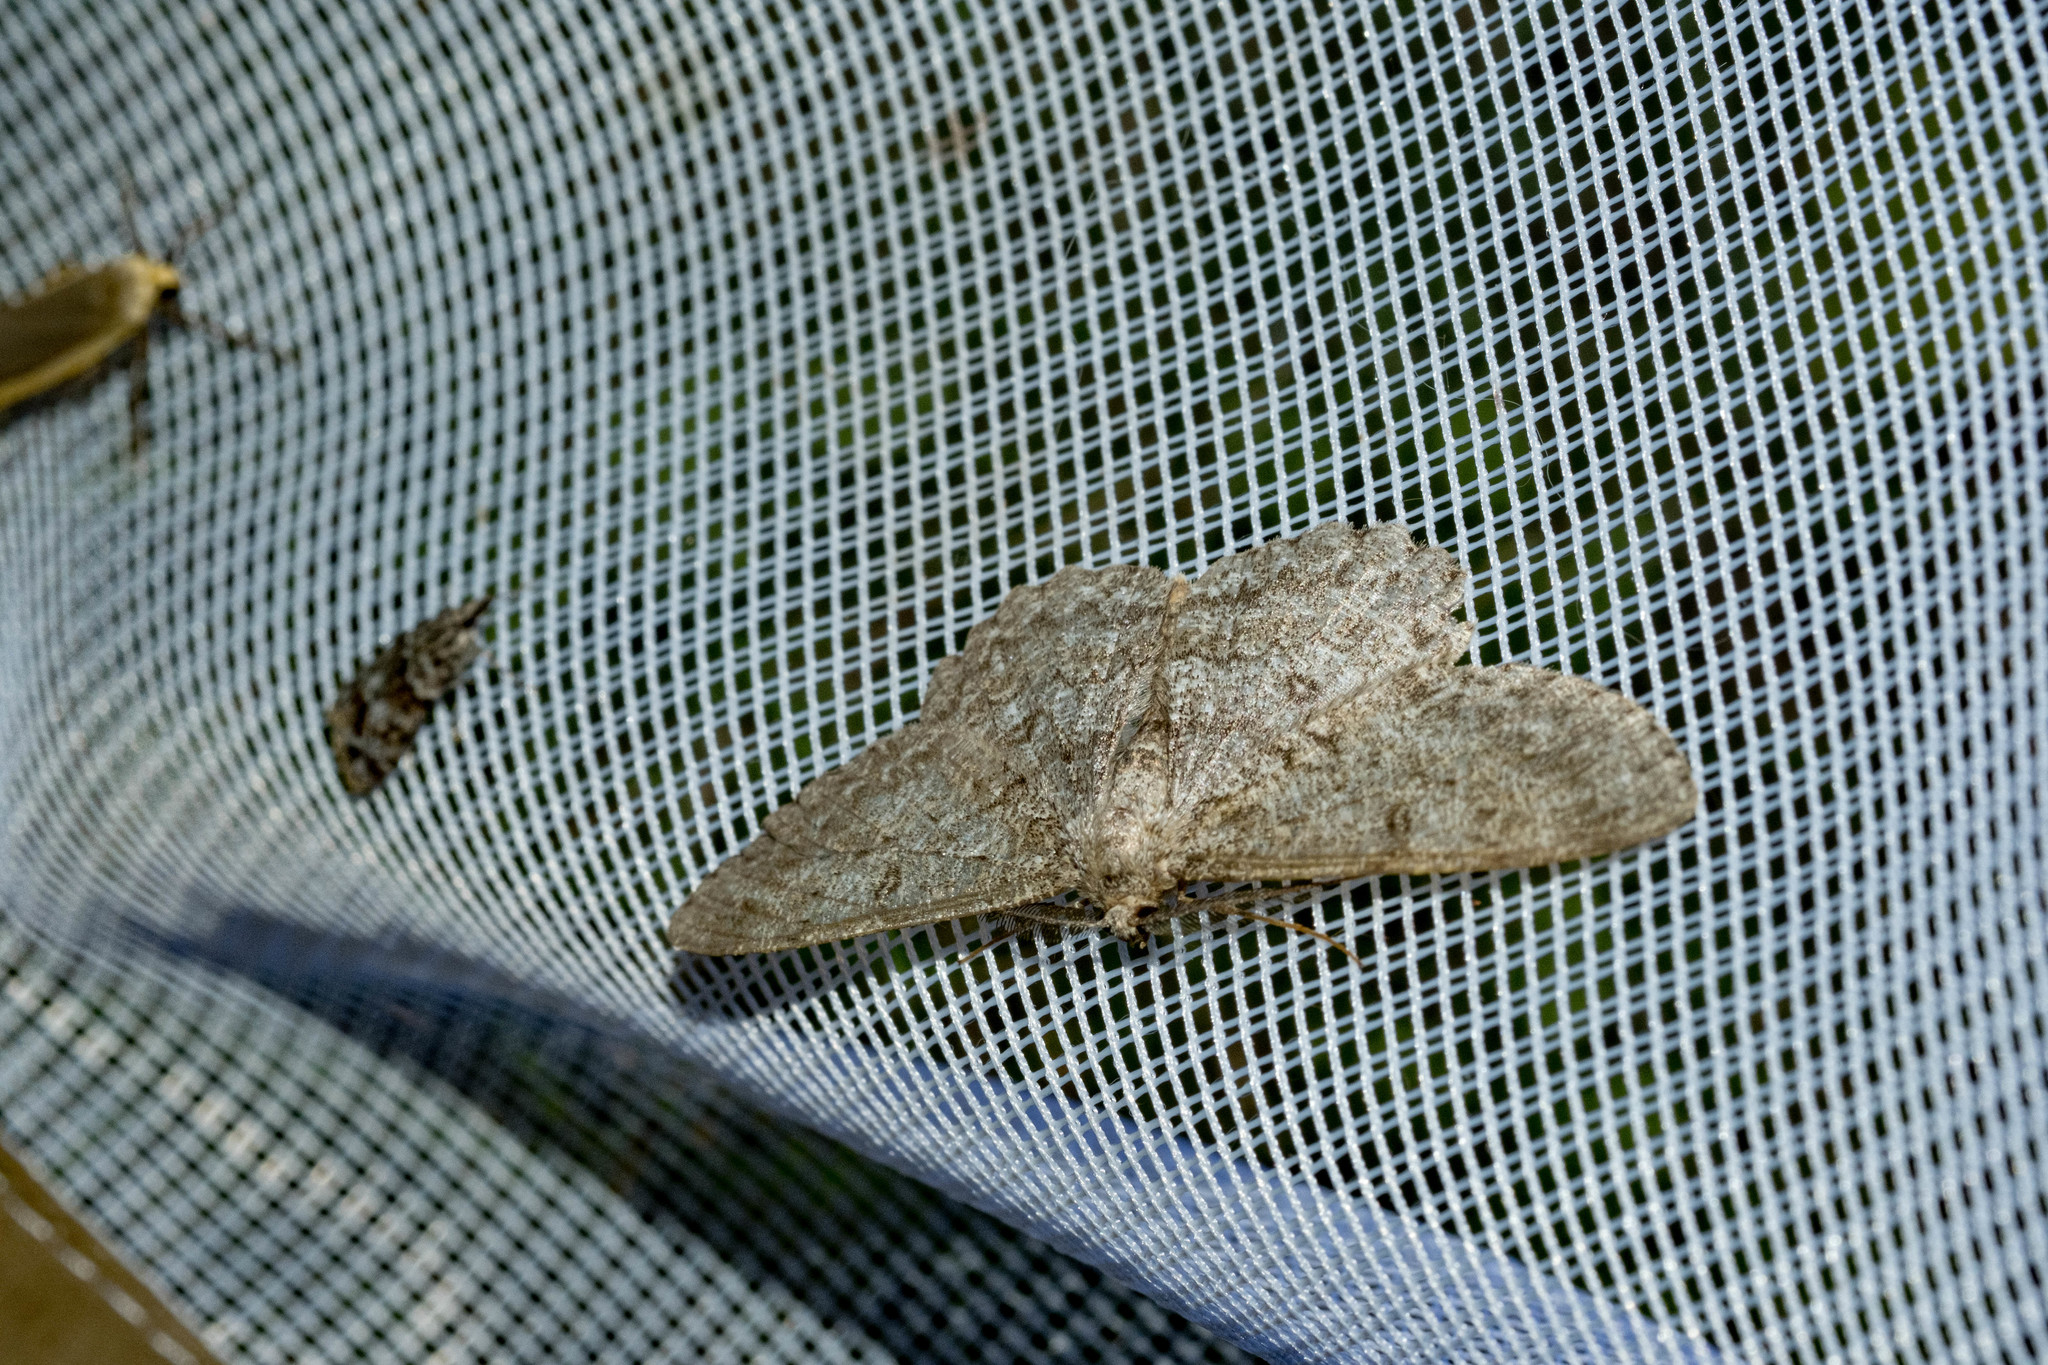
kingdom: Animalia
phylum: Arthropoda
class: Insecta
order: Lepidoptera
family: Geometridae
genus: Hypomecis
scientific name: Hypomecis punctinalis
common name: Pale oak beauty
